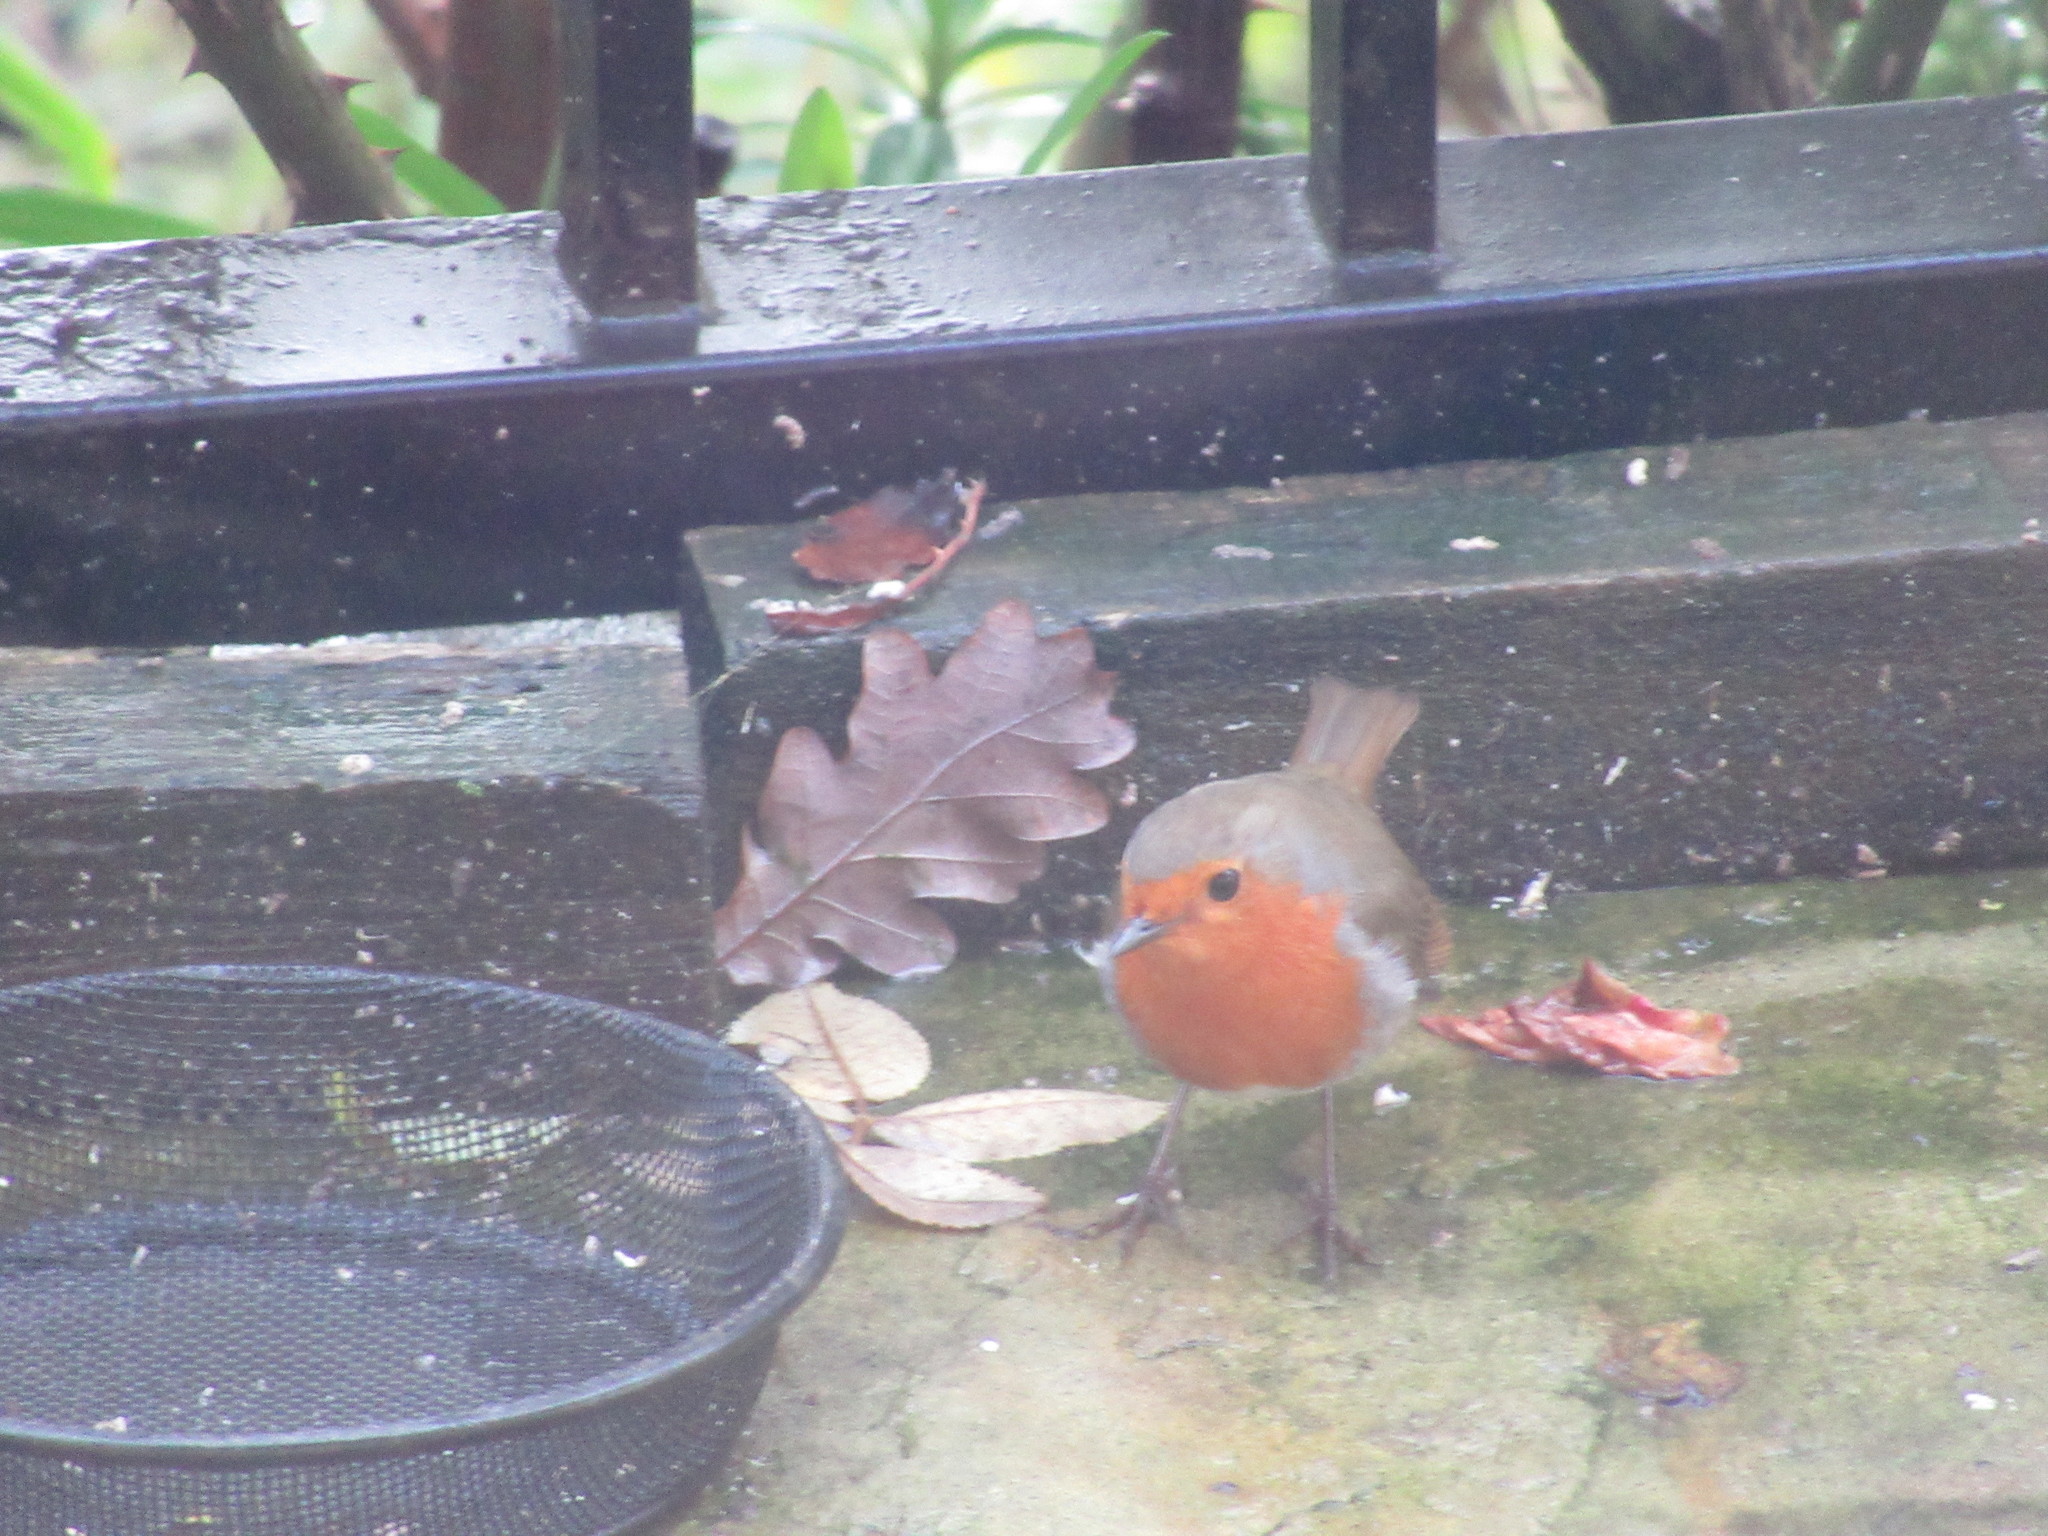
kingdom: Animalia
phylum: Chordata
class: Aves
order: Passeriformes
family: Muscicapidae
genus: Erithacus
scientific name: Erithacus rubecula
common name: European robin
